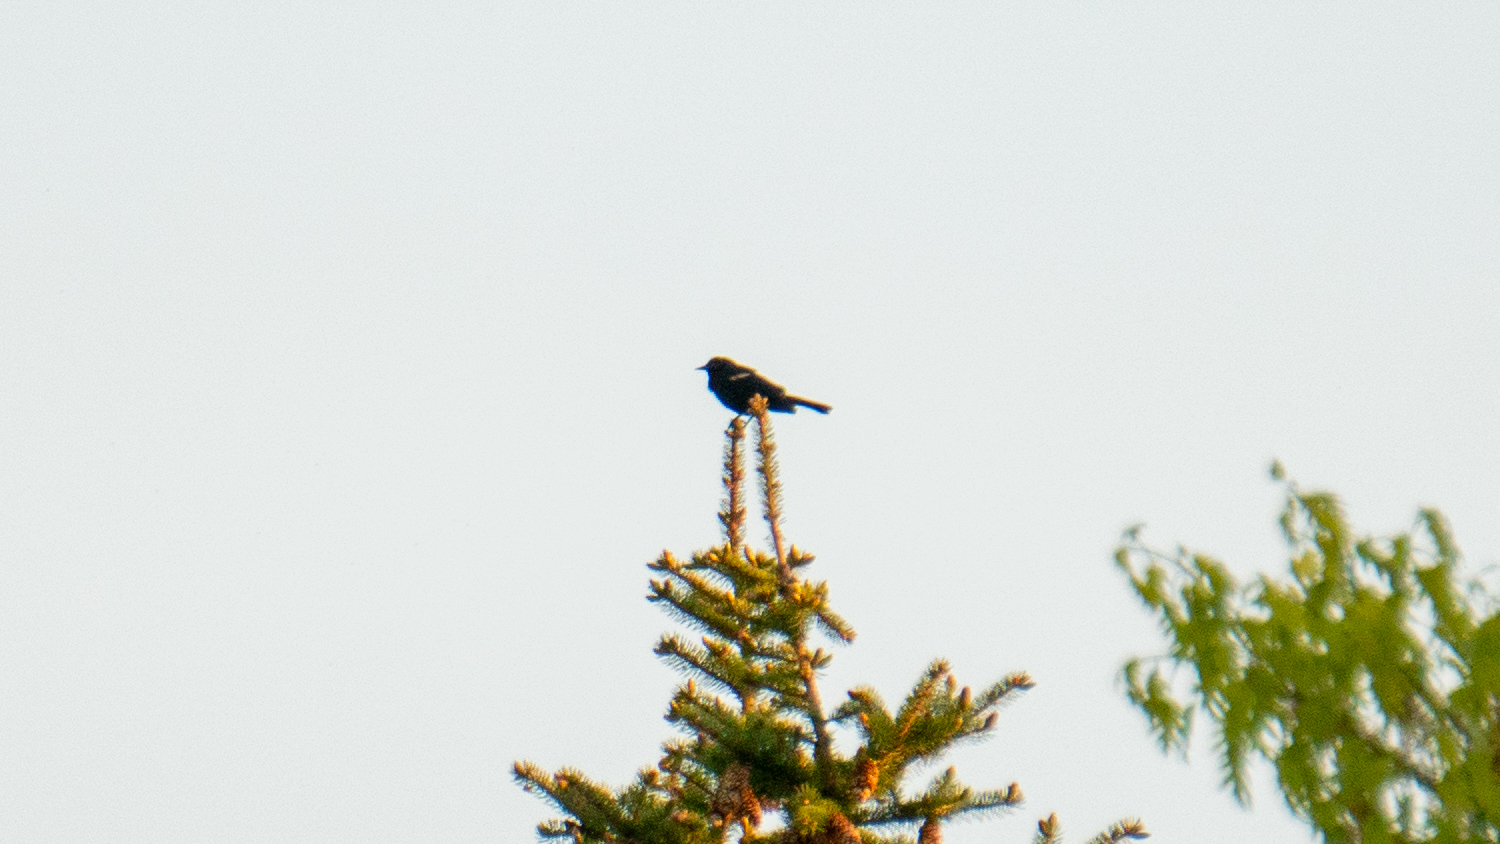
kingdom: Animalia
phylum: Chordata
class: Aves
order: Passeriformes
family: Icteridae
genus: Agelaius
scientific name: Agelaius phoeniceus
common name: Red-winged blackbird
